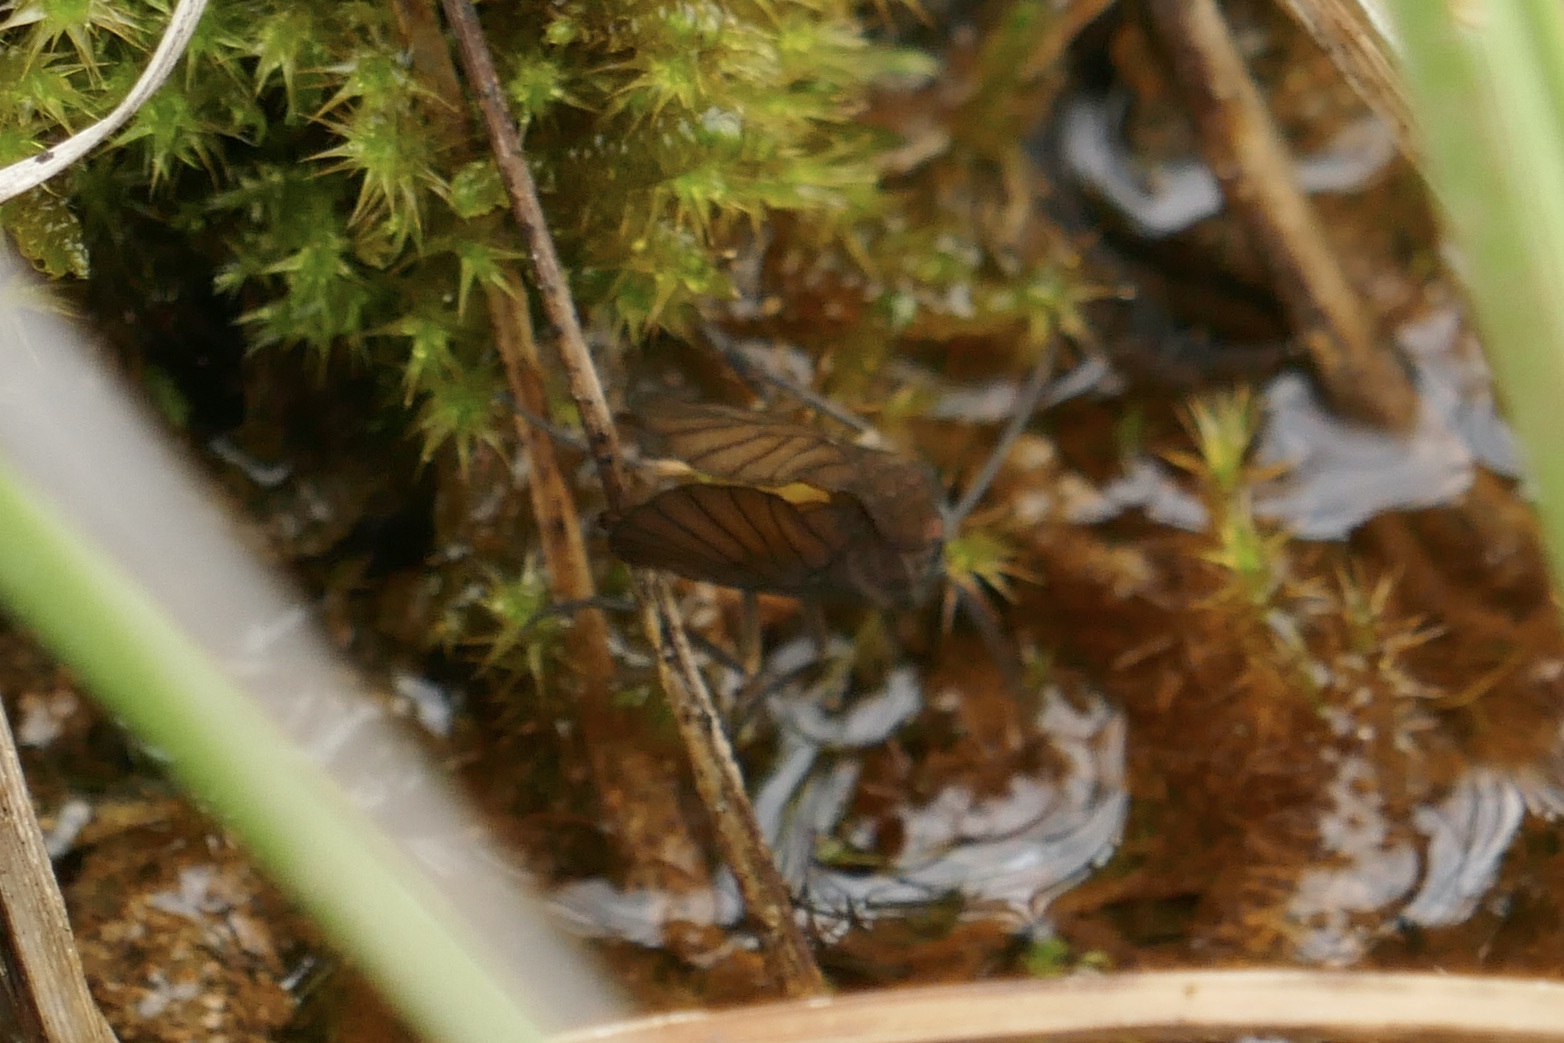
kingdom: Animalia
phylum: Arthropoda
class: Insecta
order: Megaloptera
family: Sialidae
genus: Sialis
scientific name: Sialis
